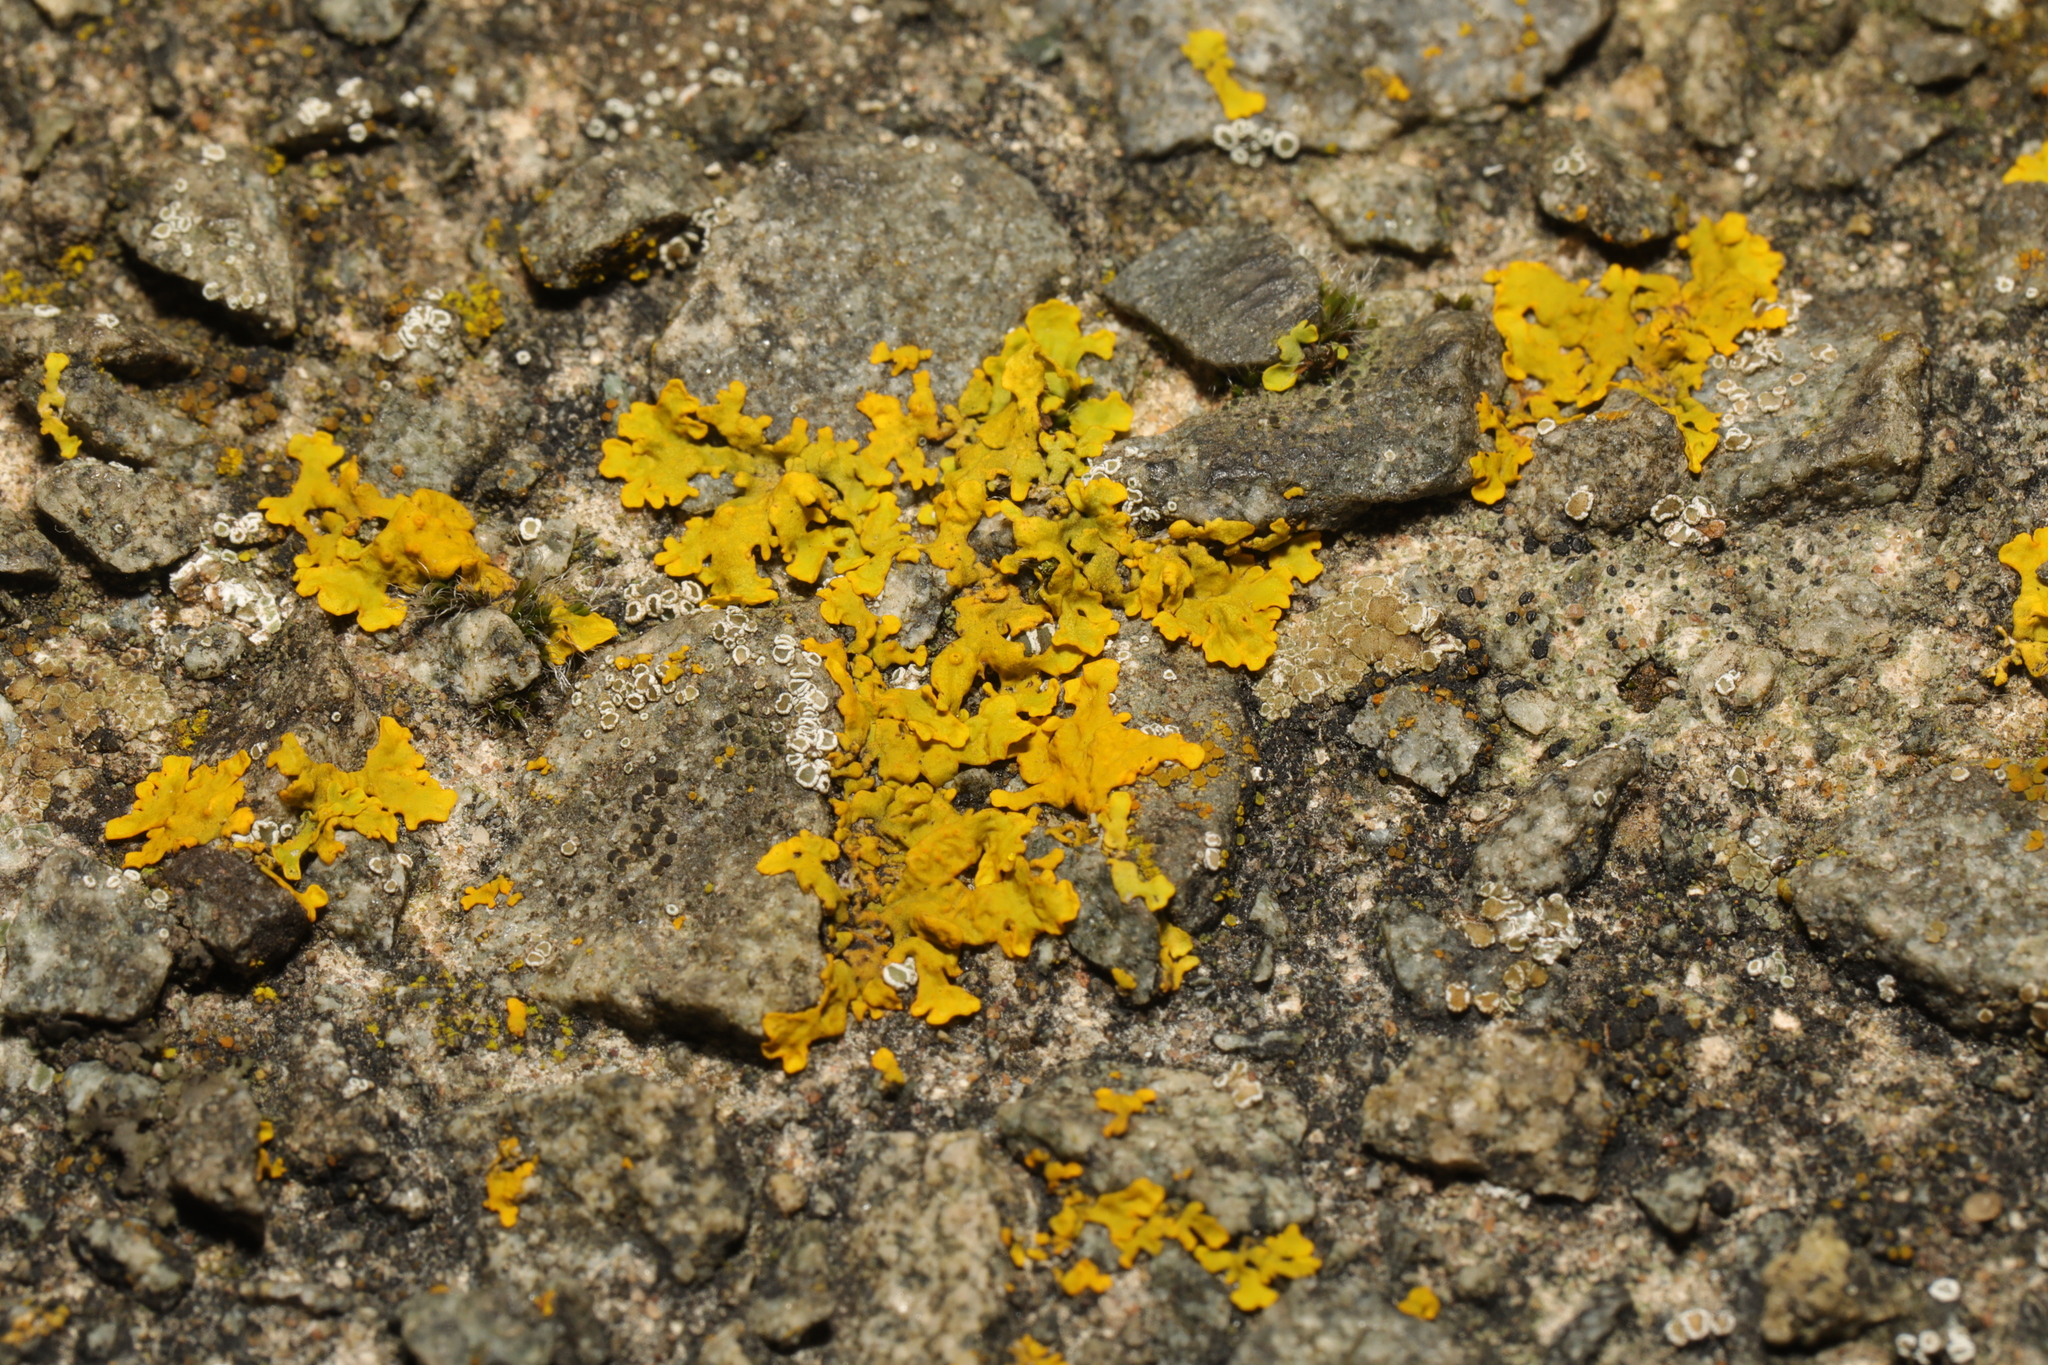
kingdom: Fungi
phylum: Ascomycota
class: Lecanoromycetes
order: Teloschistales
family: Teloschistaceae
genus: Xanthoria
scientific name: Xanthoria parietina
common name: Common orange lichen
